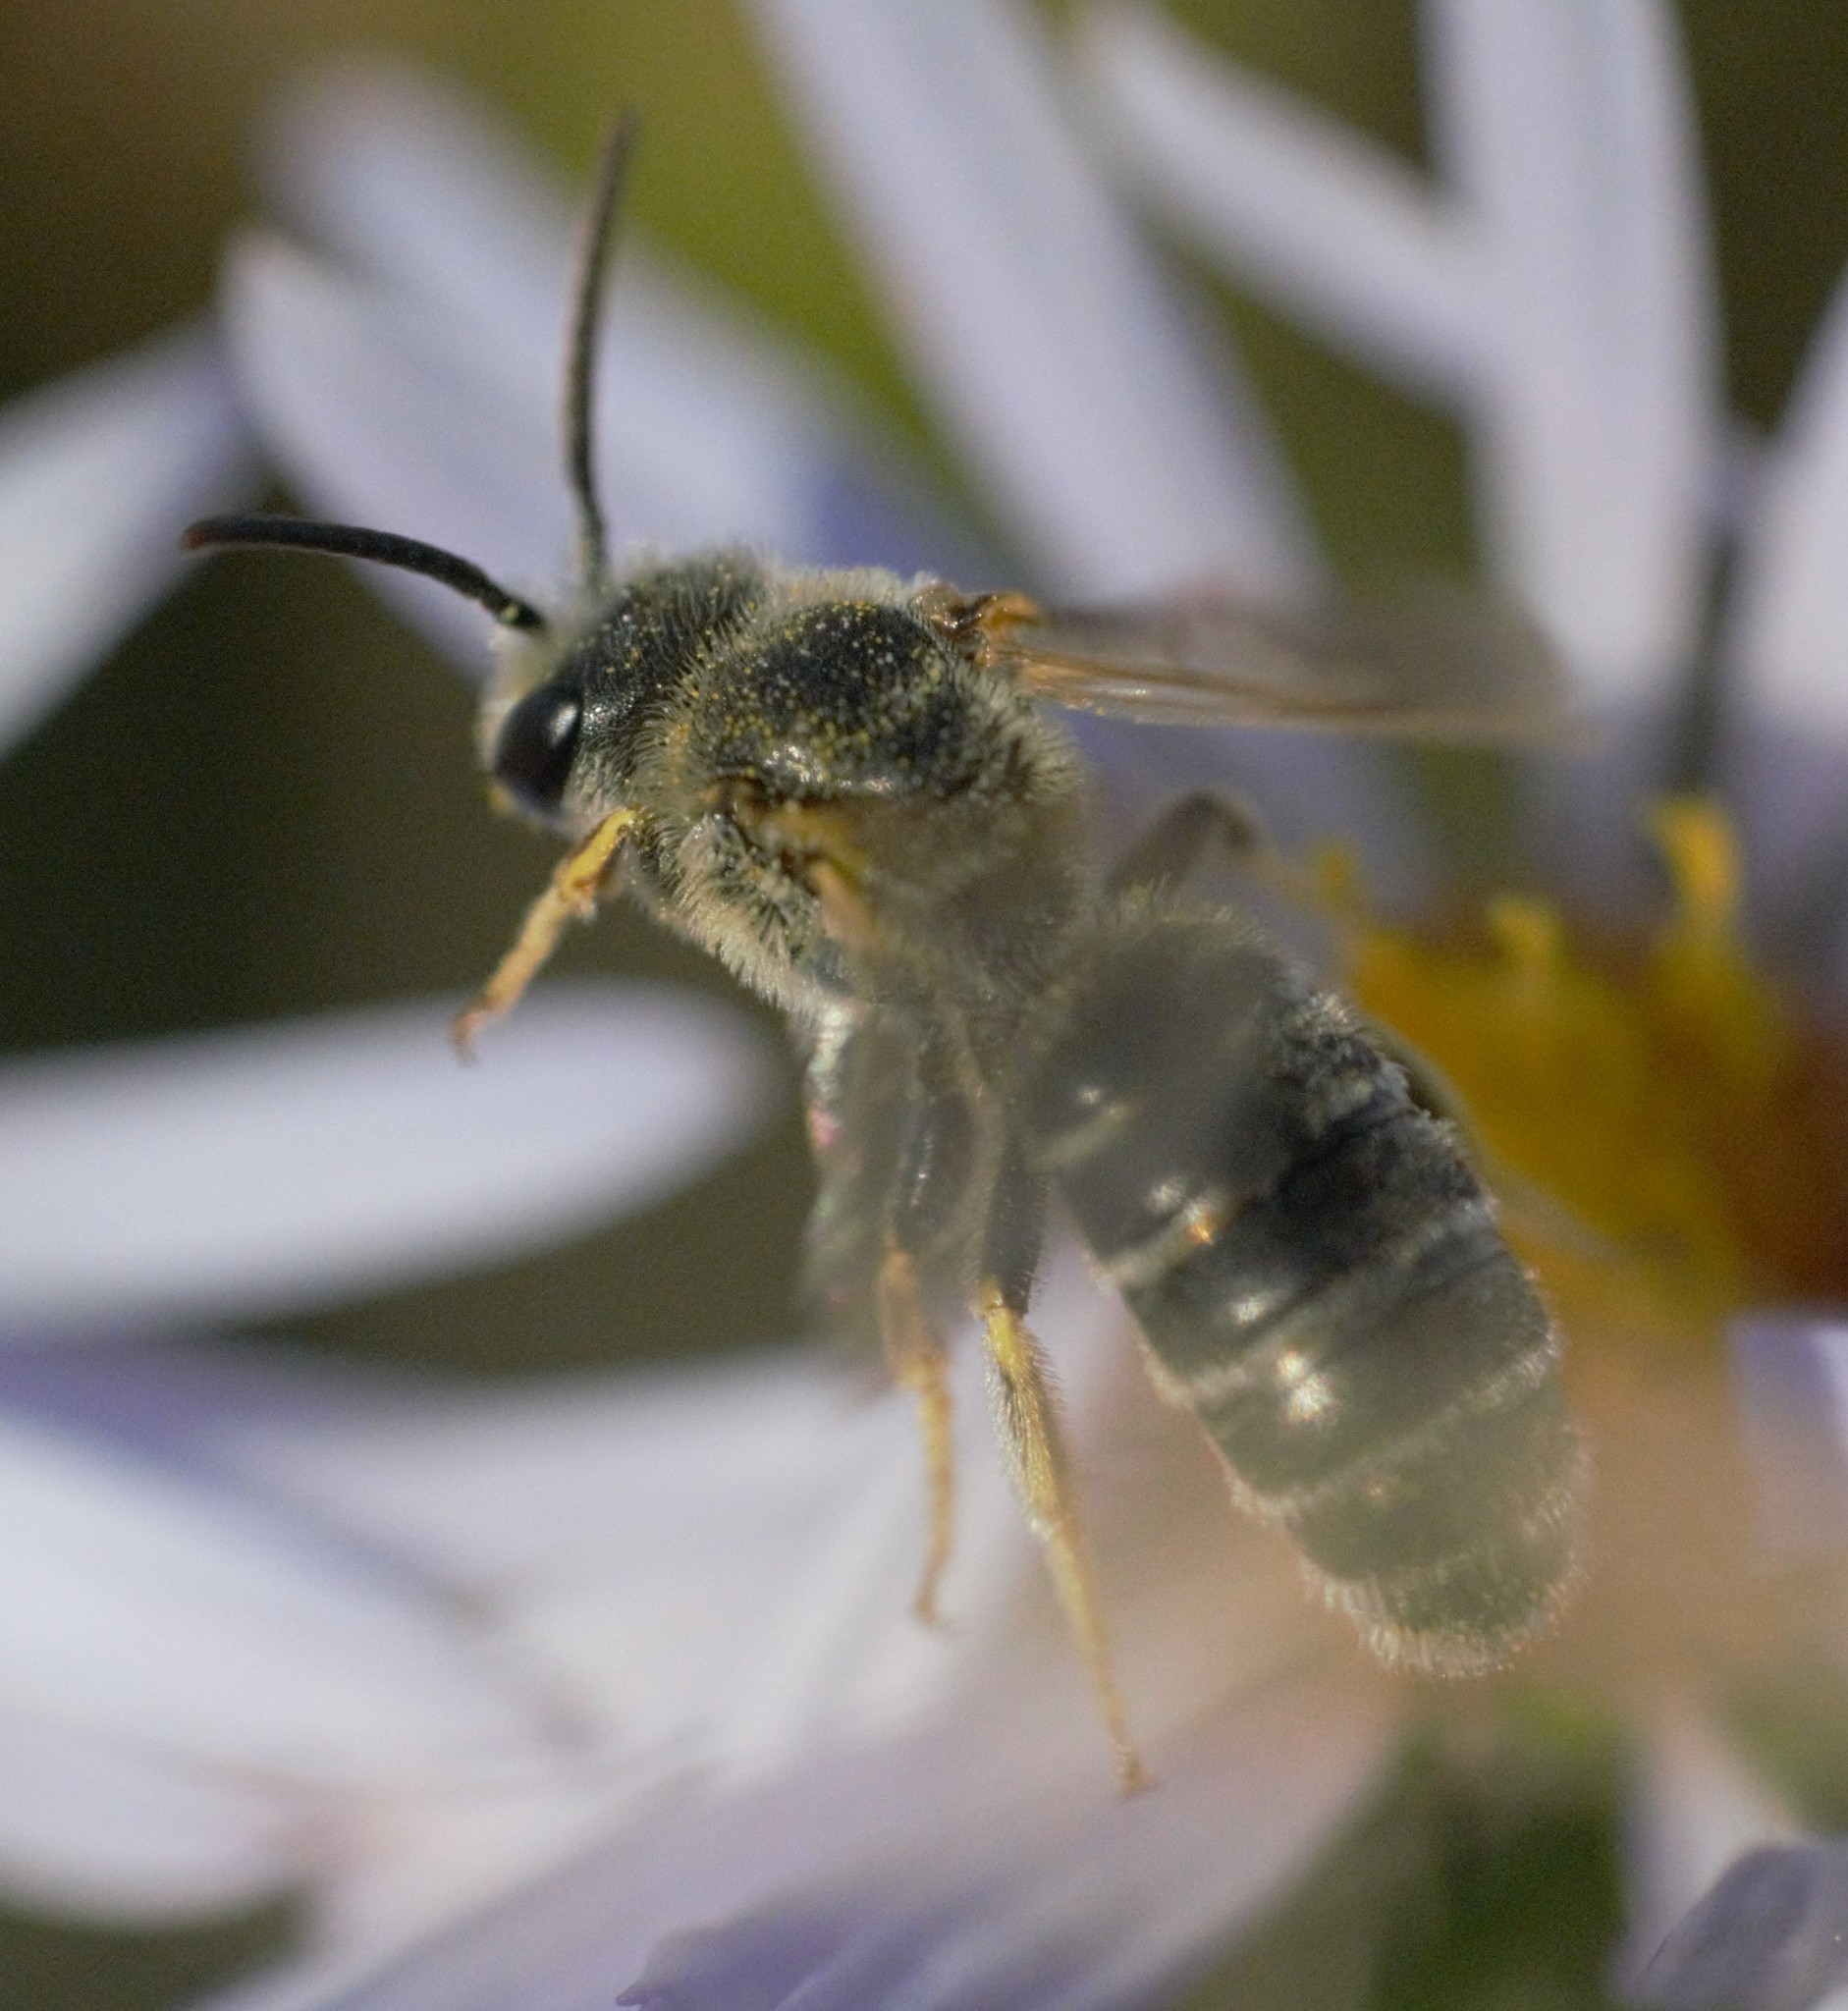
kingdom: Animalia
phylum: Arthropoda
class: Insecta
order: Hymenoptera
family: Halictidae
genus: Halictus
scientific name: Halictus ligatus
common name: Ligated furrow bee
